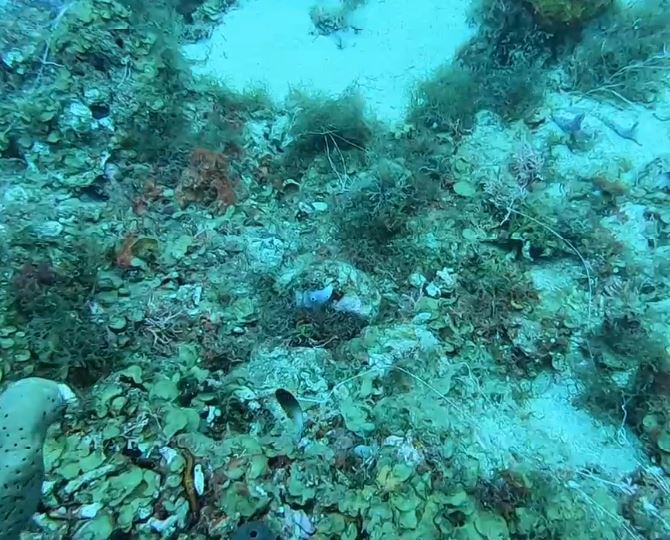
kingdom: Animalia
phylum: Chordata
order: Perciformes
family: Pomacentridae
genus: Stegastes
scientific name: Stegastes partitus
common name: Bicolor damselfish
